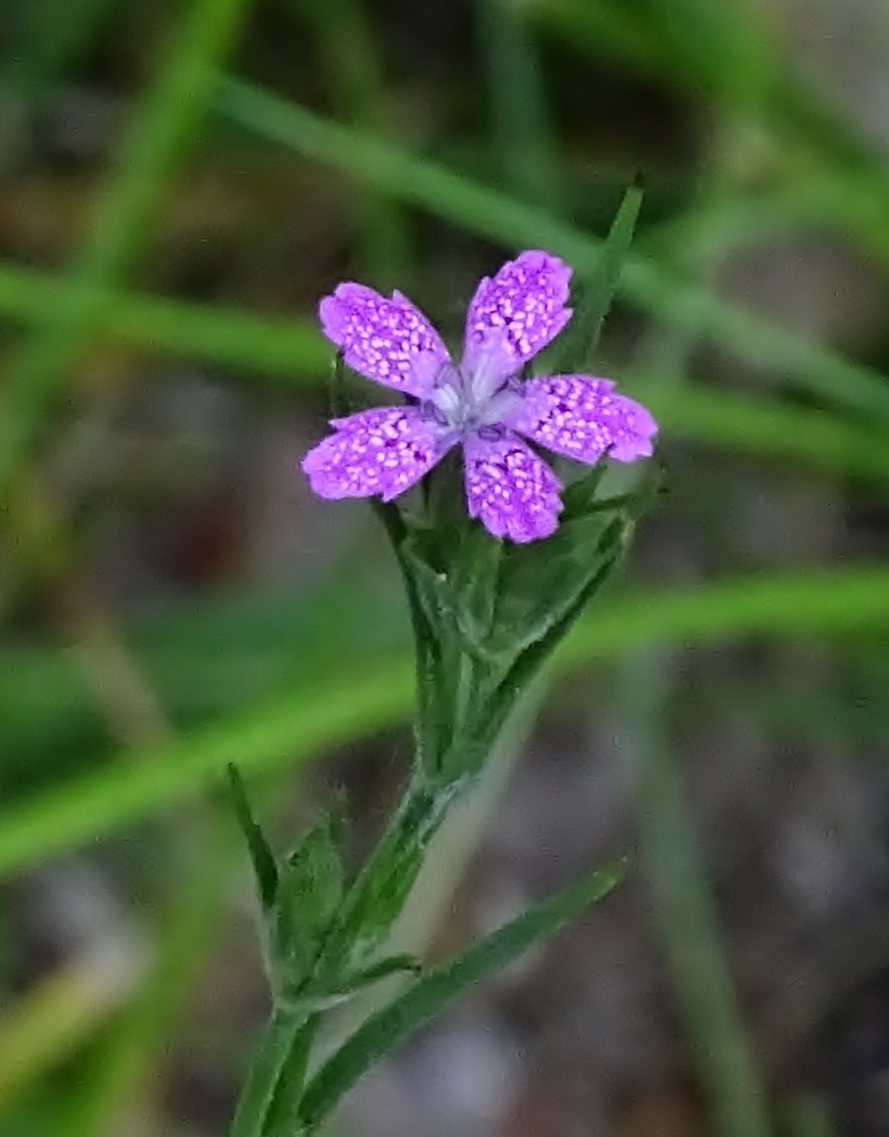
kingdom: Plantae
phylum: Tracheophyta
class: Magnoliopsida
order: Caryophyllales
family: Caryophyllaceae
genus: Dianthus
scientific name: Dianthus armeria
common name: Deptford pink
